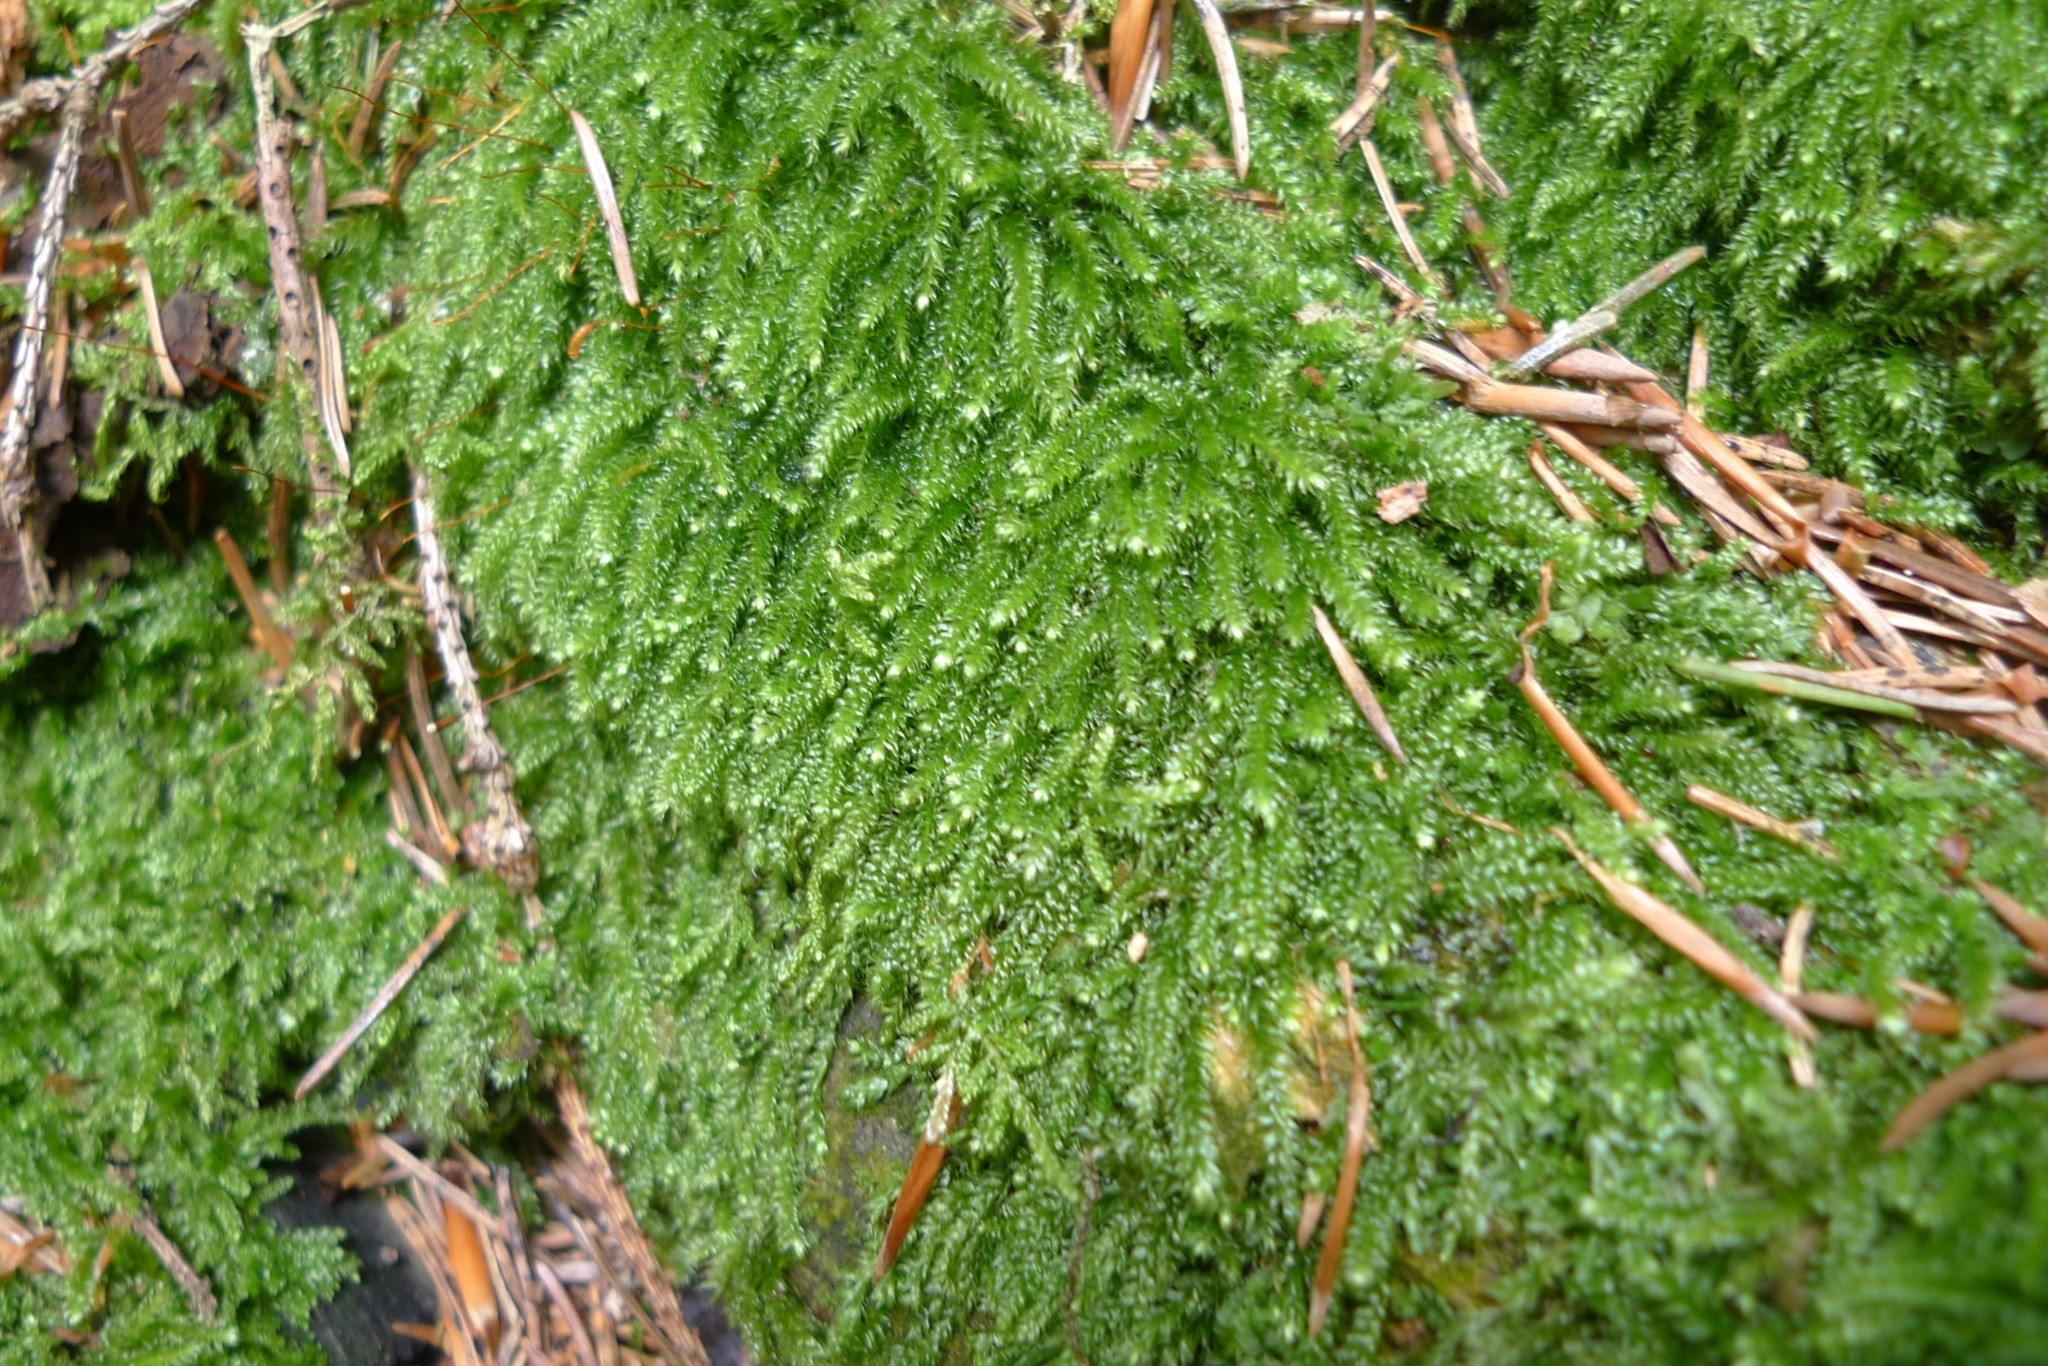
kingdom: Plantae
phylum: Bryophyta
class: Bryopsida
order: Hypnales
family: Plagiotheciaceae
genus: Herzogiella
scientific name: Herzogiella seligeri
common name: Silesian feather-moss
